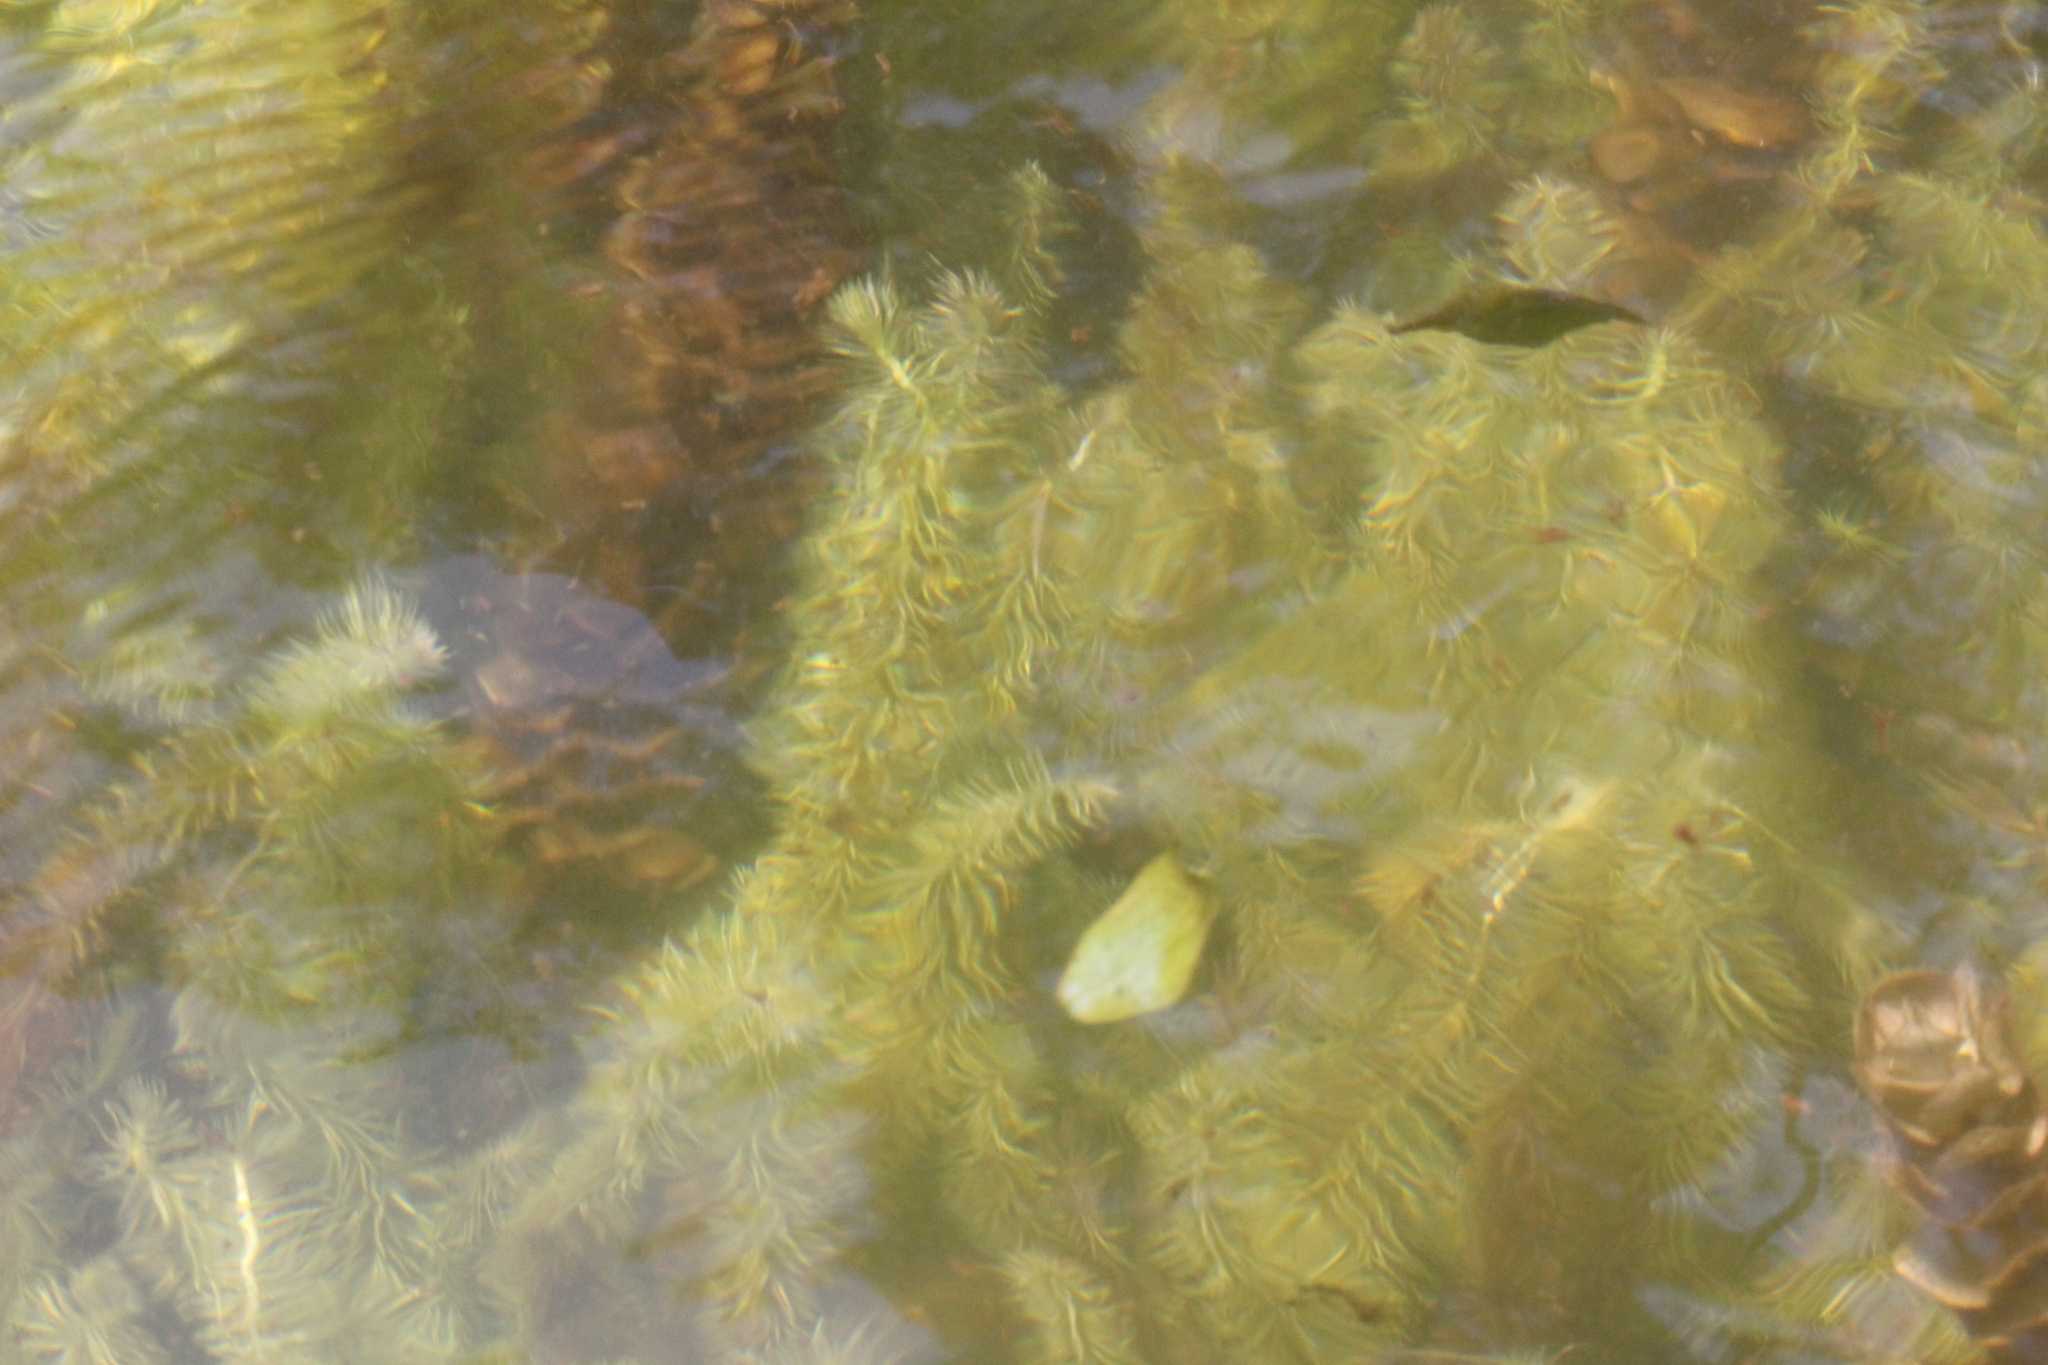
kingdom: Plantae
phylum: Tracheophyta
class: Liliopsida
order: Poales
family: Mayacaceae
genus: Mayaca
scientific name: Mayaca fluviatilis
